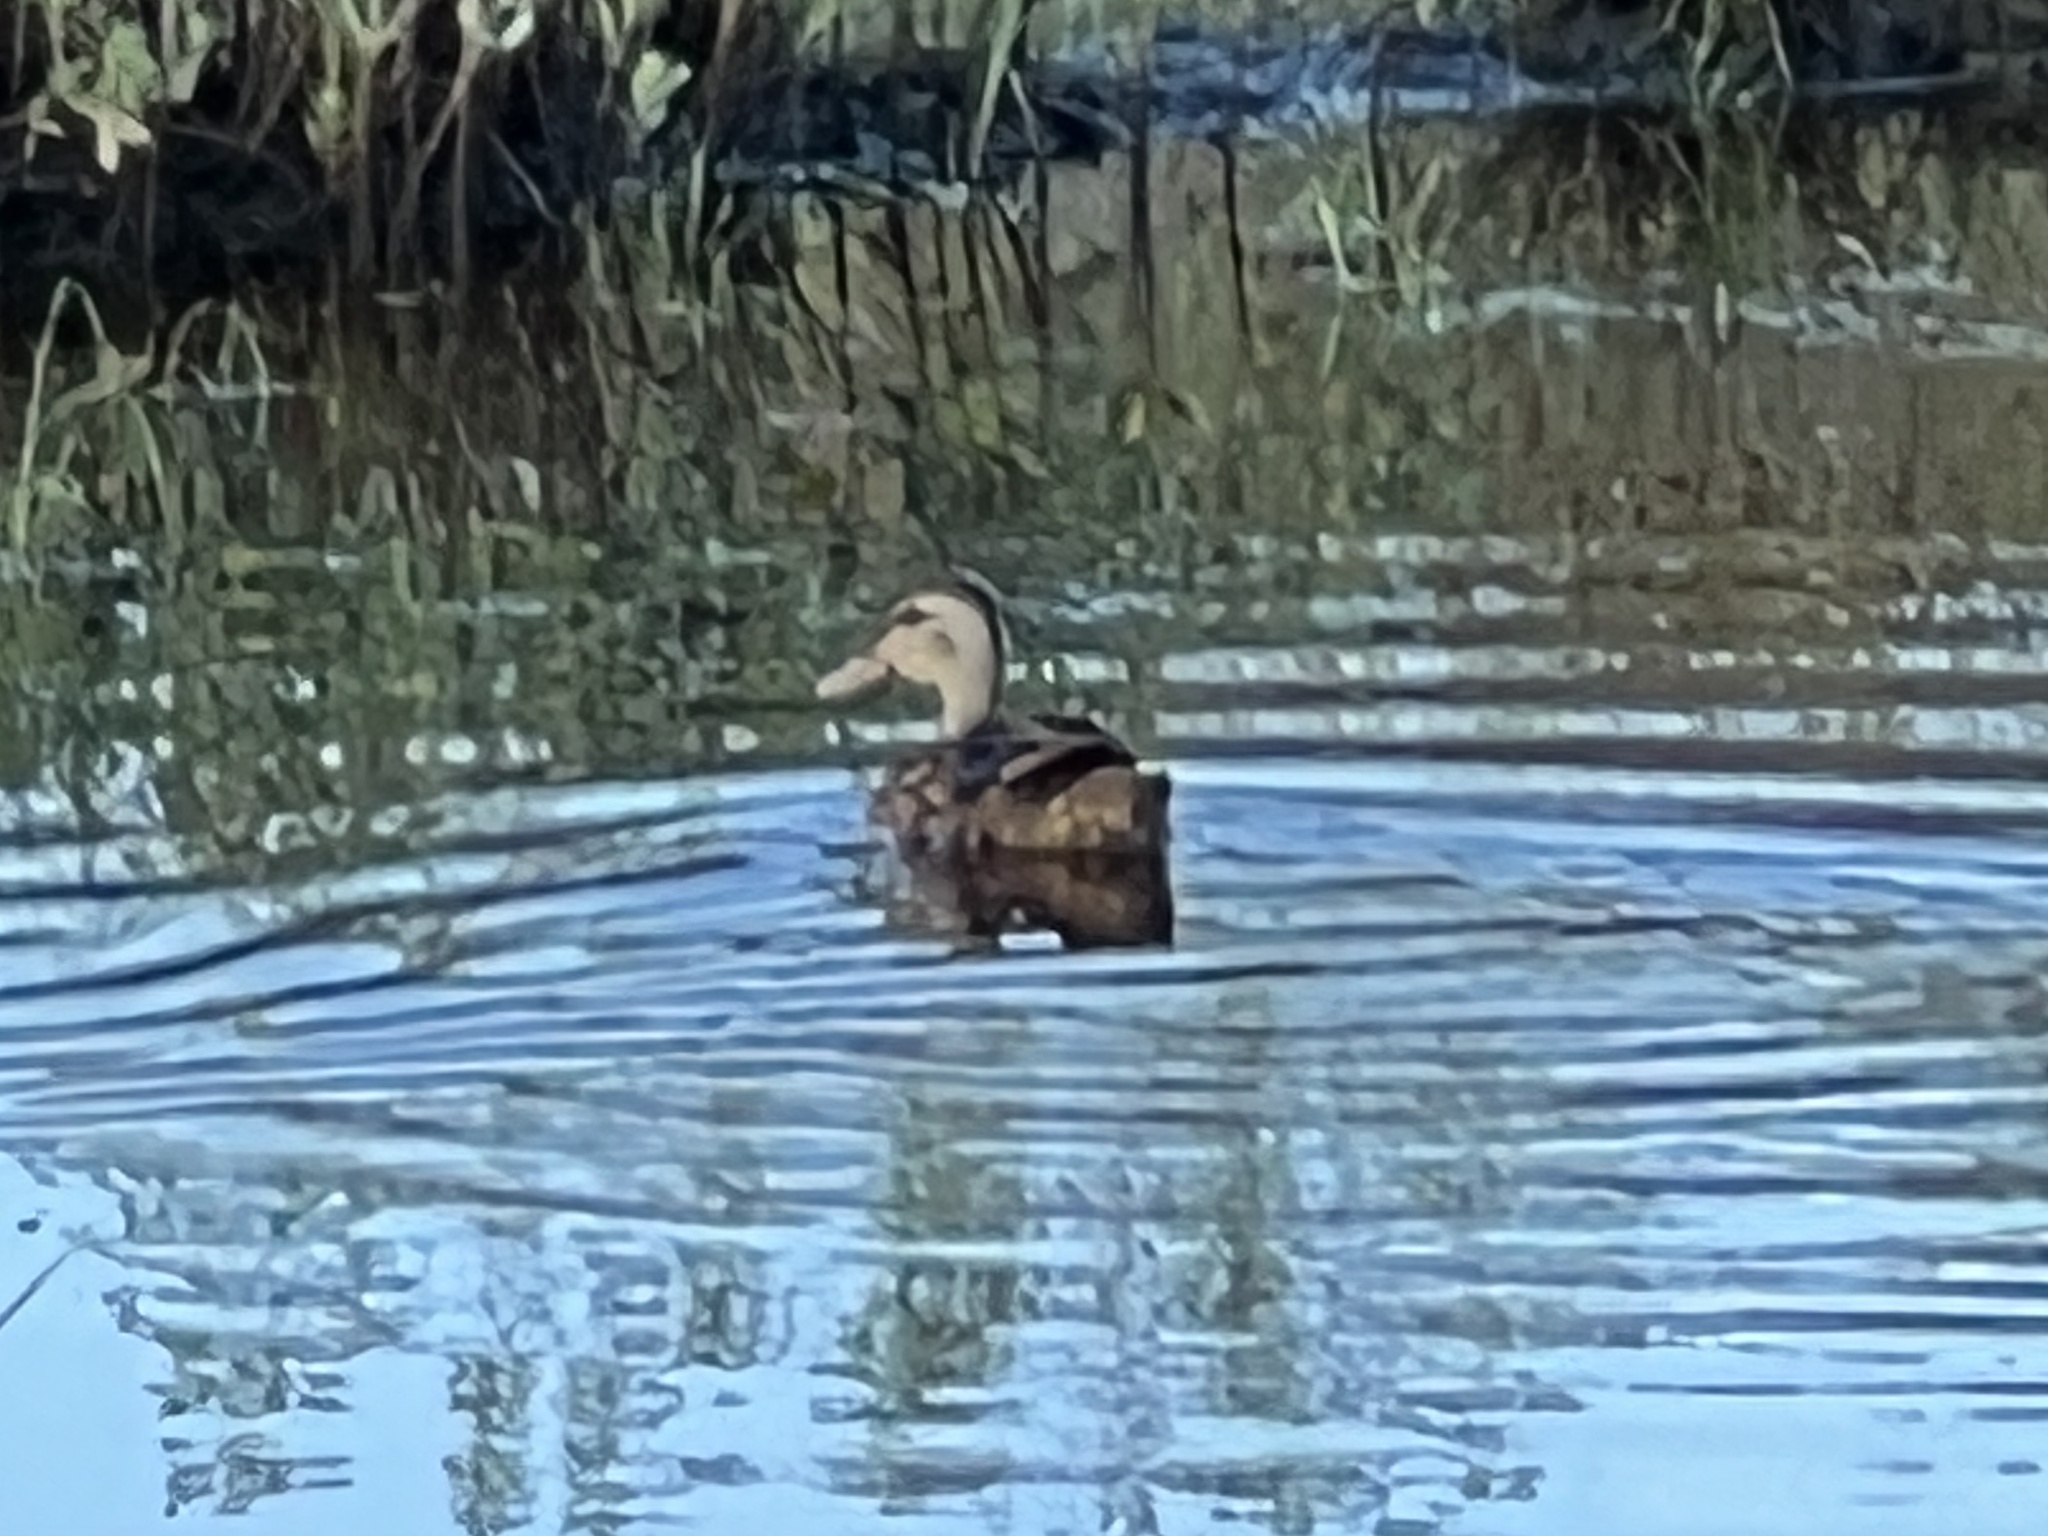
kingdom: Animalia
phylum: Chordata
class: Aves
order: Anseriformes
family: Anatidae
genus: Anas
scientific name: Anas fulvigula
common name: Mottled duck
